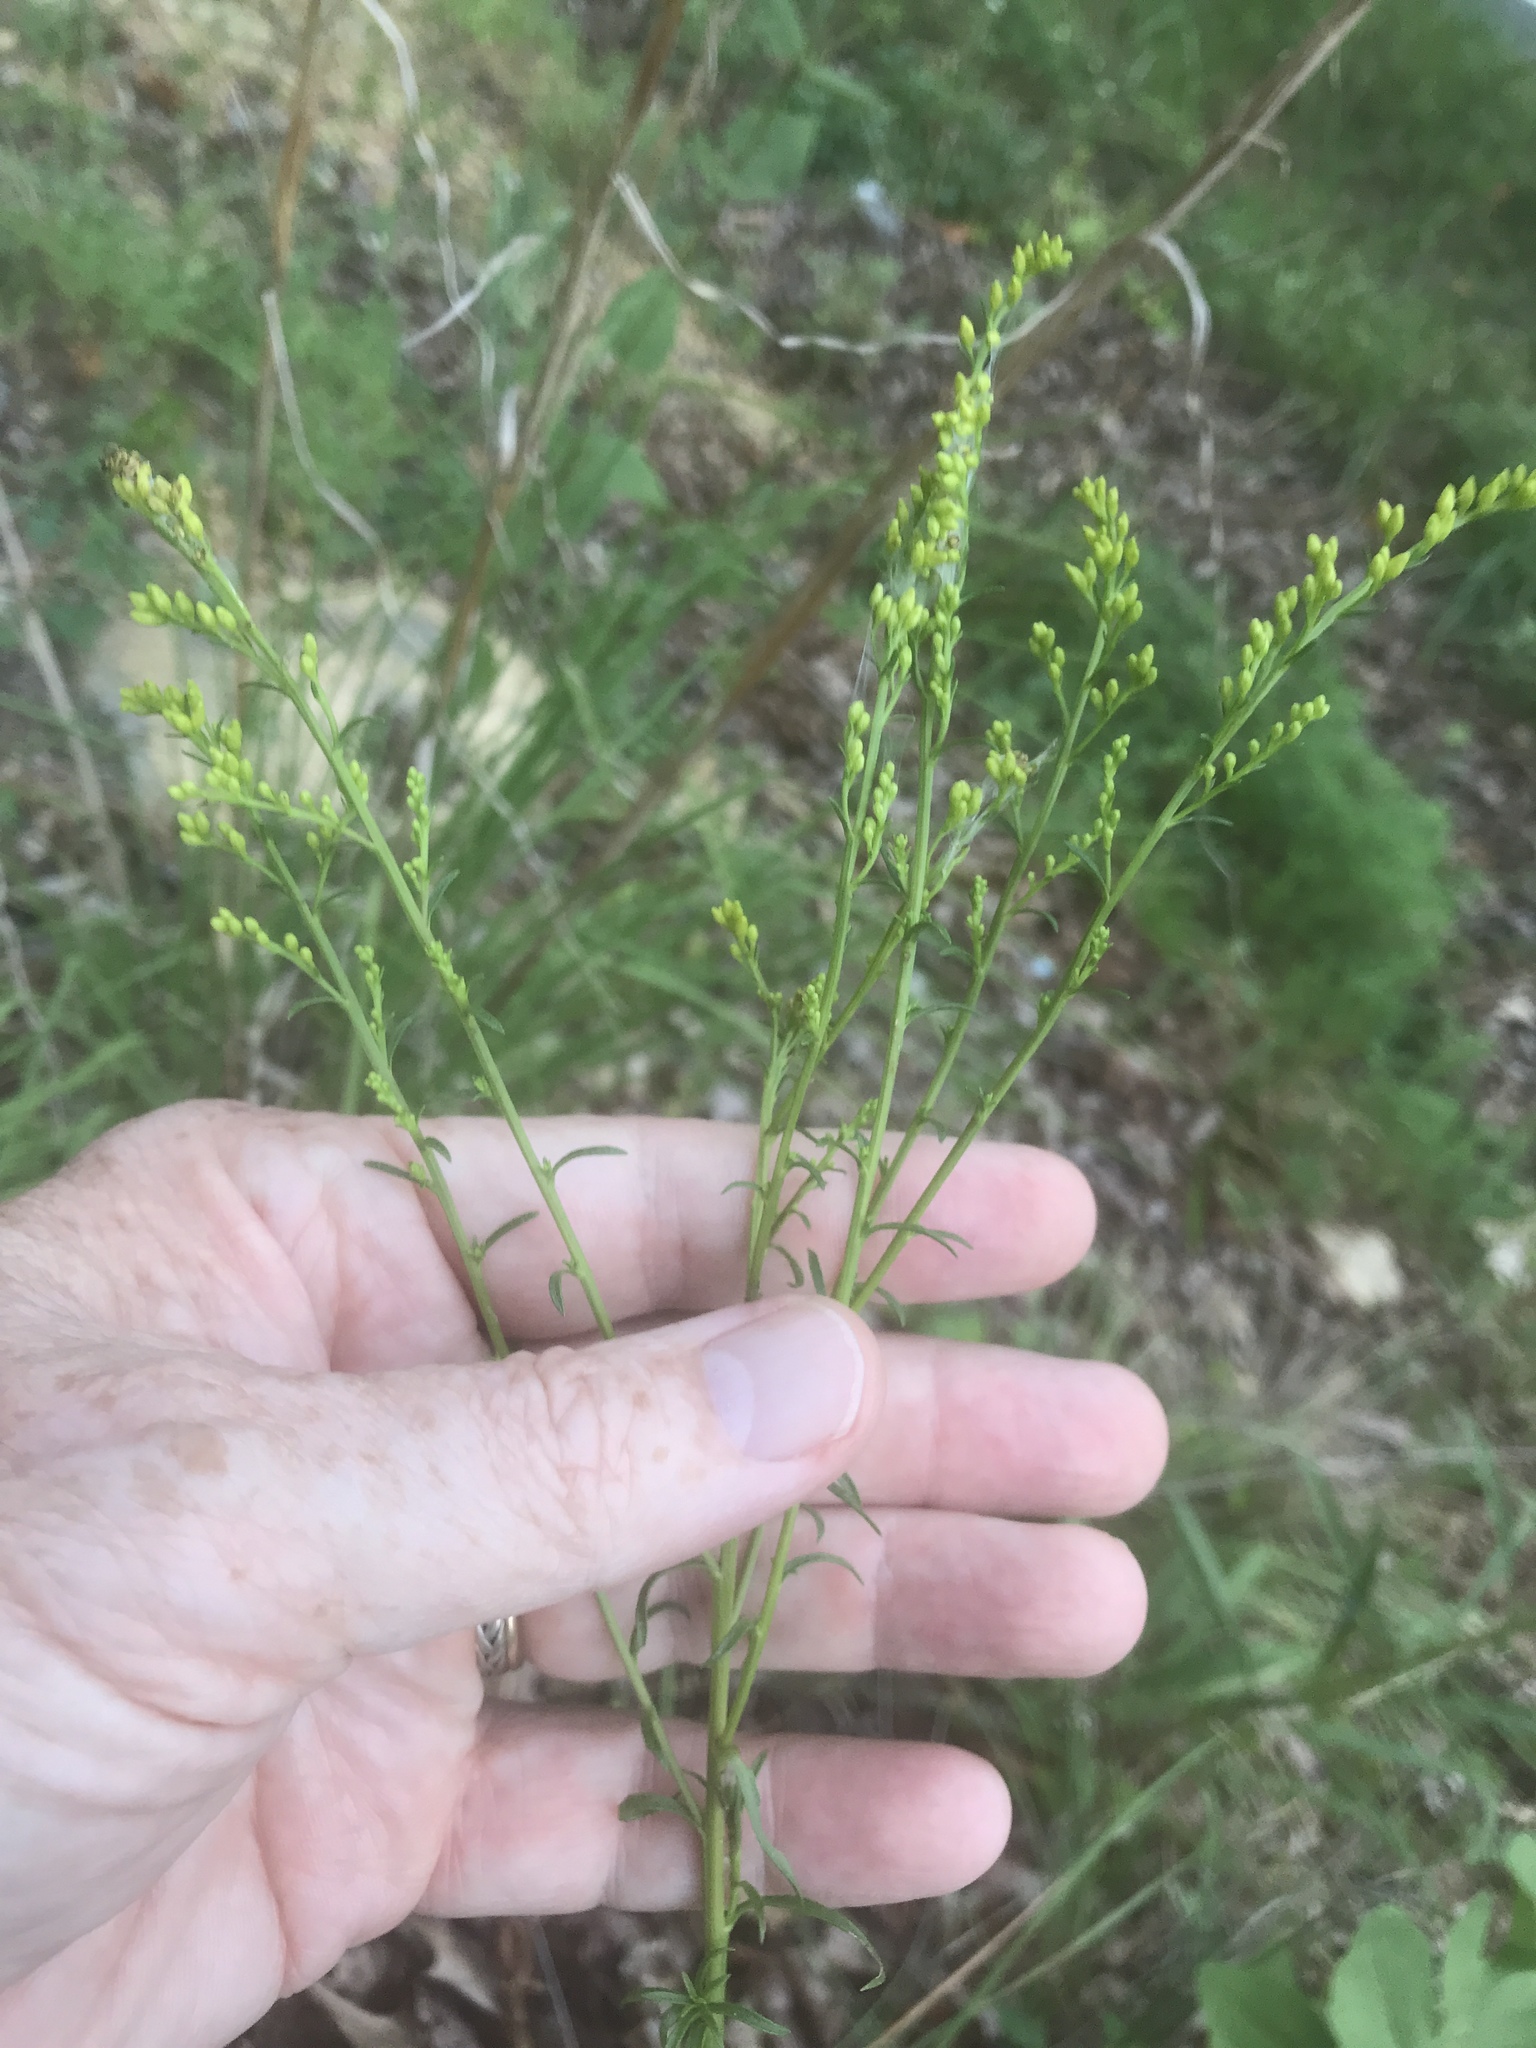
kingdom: Plantae
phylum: Tracheophyta
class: Magnoliopsida
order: Asterales
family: Asteraceae
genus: Solidago
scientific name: Solidago pinetorum
